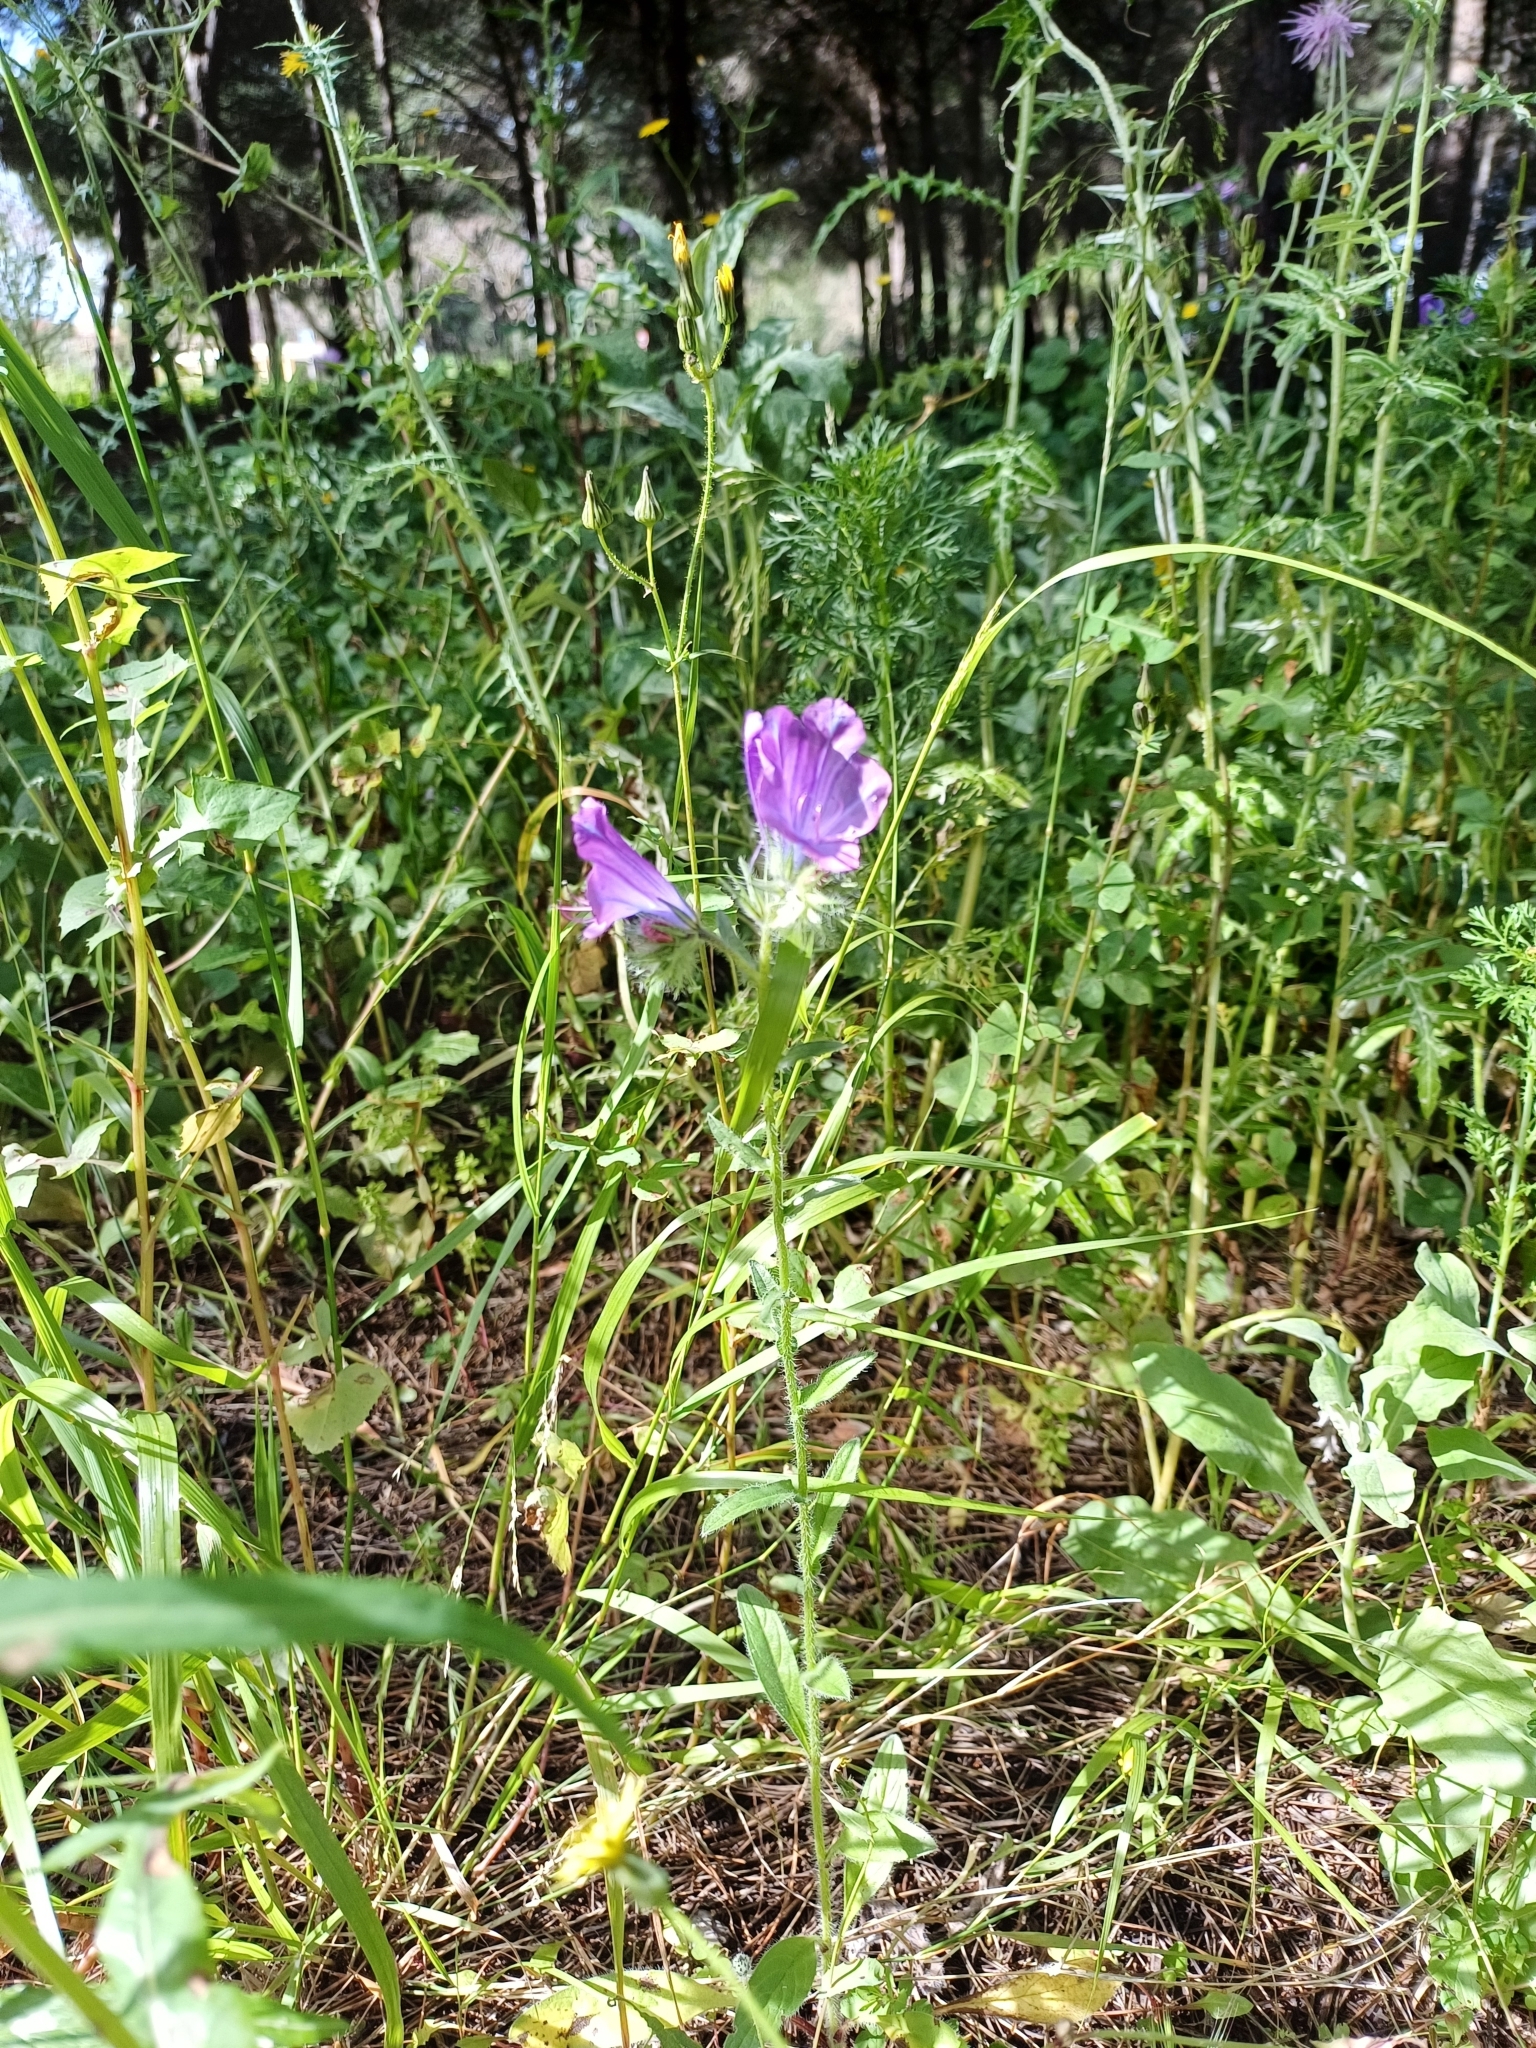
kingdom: Plantae
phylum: Tracheophyta
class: Magnoliopsida
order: Boraginales
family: Boraginaceae
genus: Echium
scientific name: Echium plantagineum
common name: Purple viper's-bugloss
